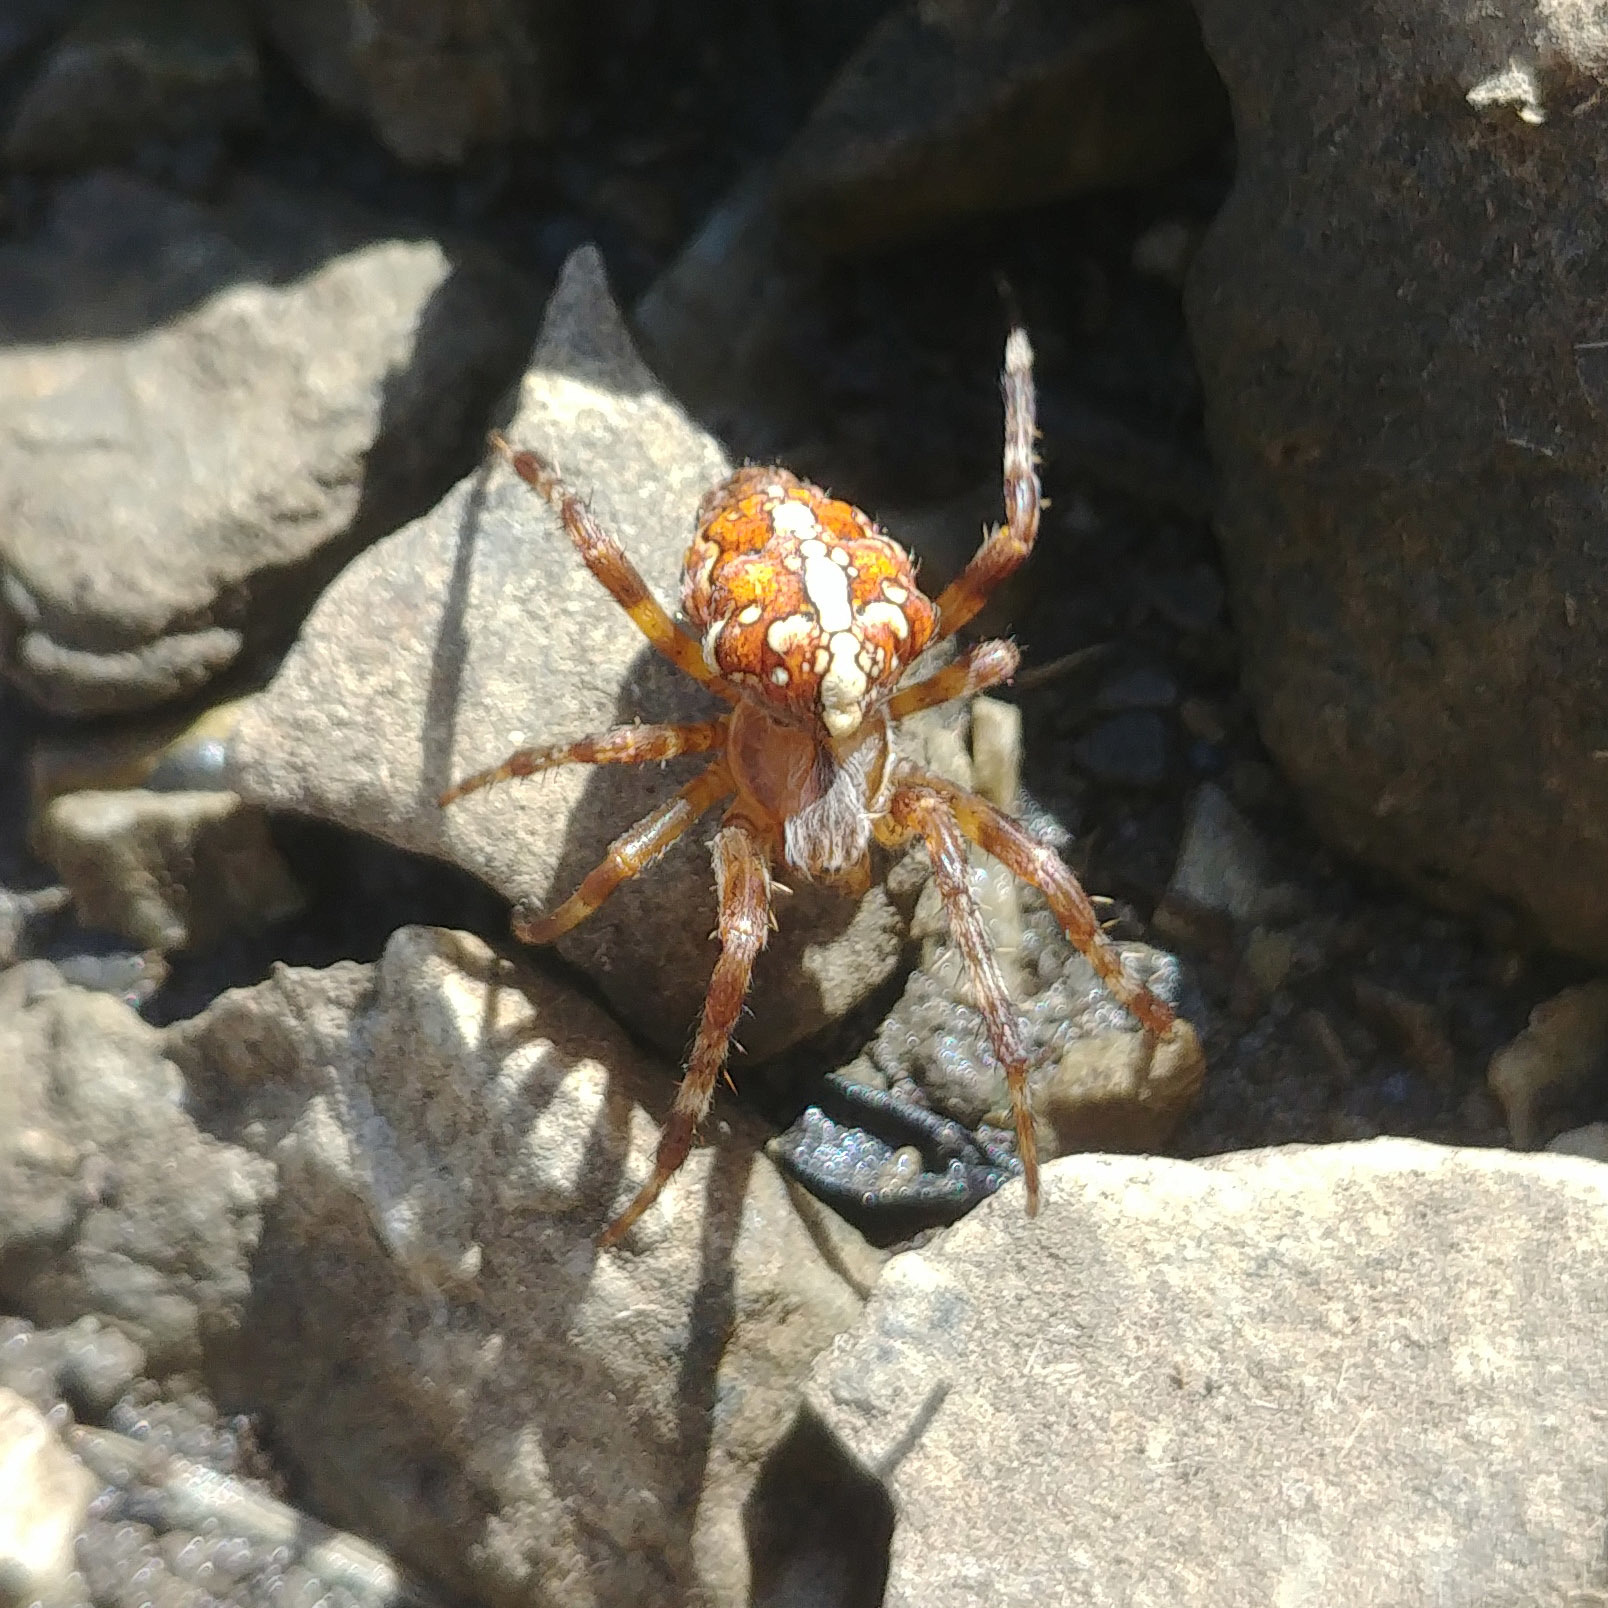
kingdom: Animalia
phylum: Arthropoda
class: Arachnida
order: Araneae
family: Araneidae
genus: Araneus
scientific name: Araneus diadematus
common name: Cross orbweaver
